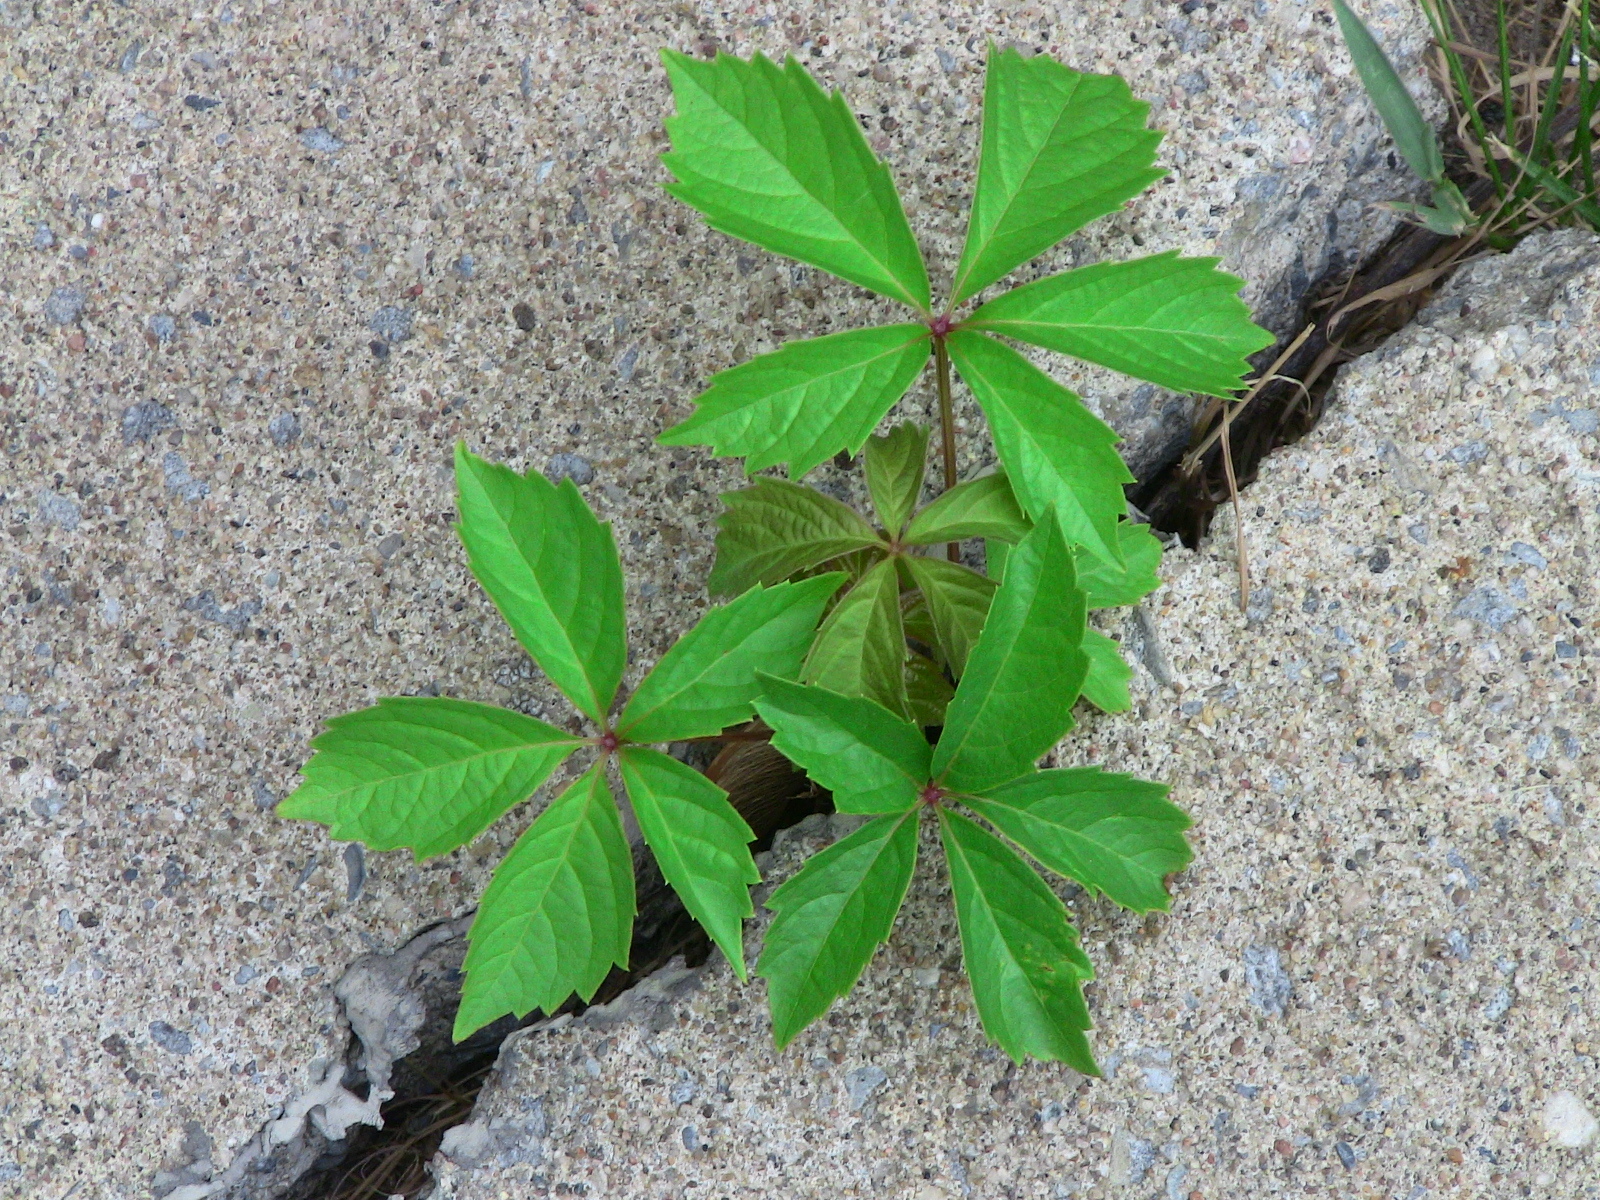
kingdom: Plantae
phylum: Tracheophyta
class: Magnoliopsida
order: Vitales
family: Vitaceae
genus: Parthenocissus
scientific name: Parthenocissus inserta
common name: False virginia-creeper
